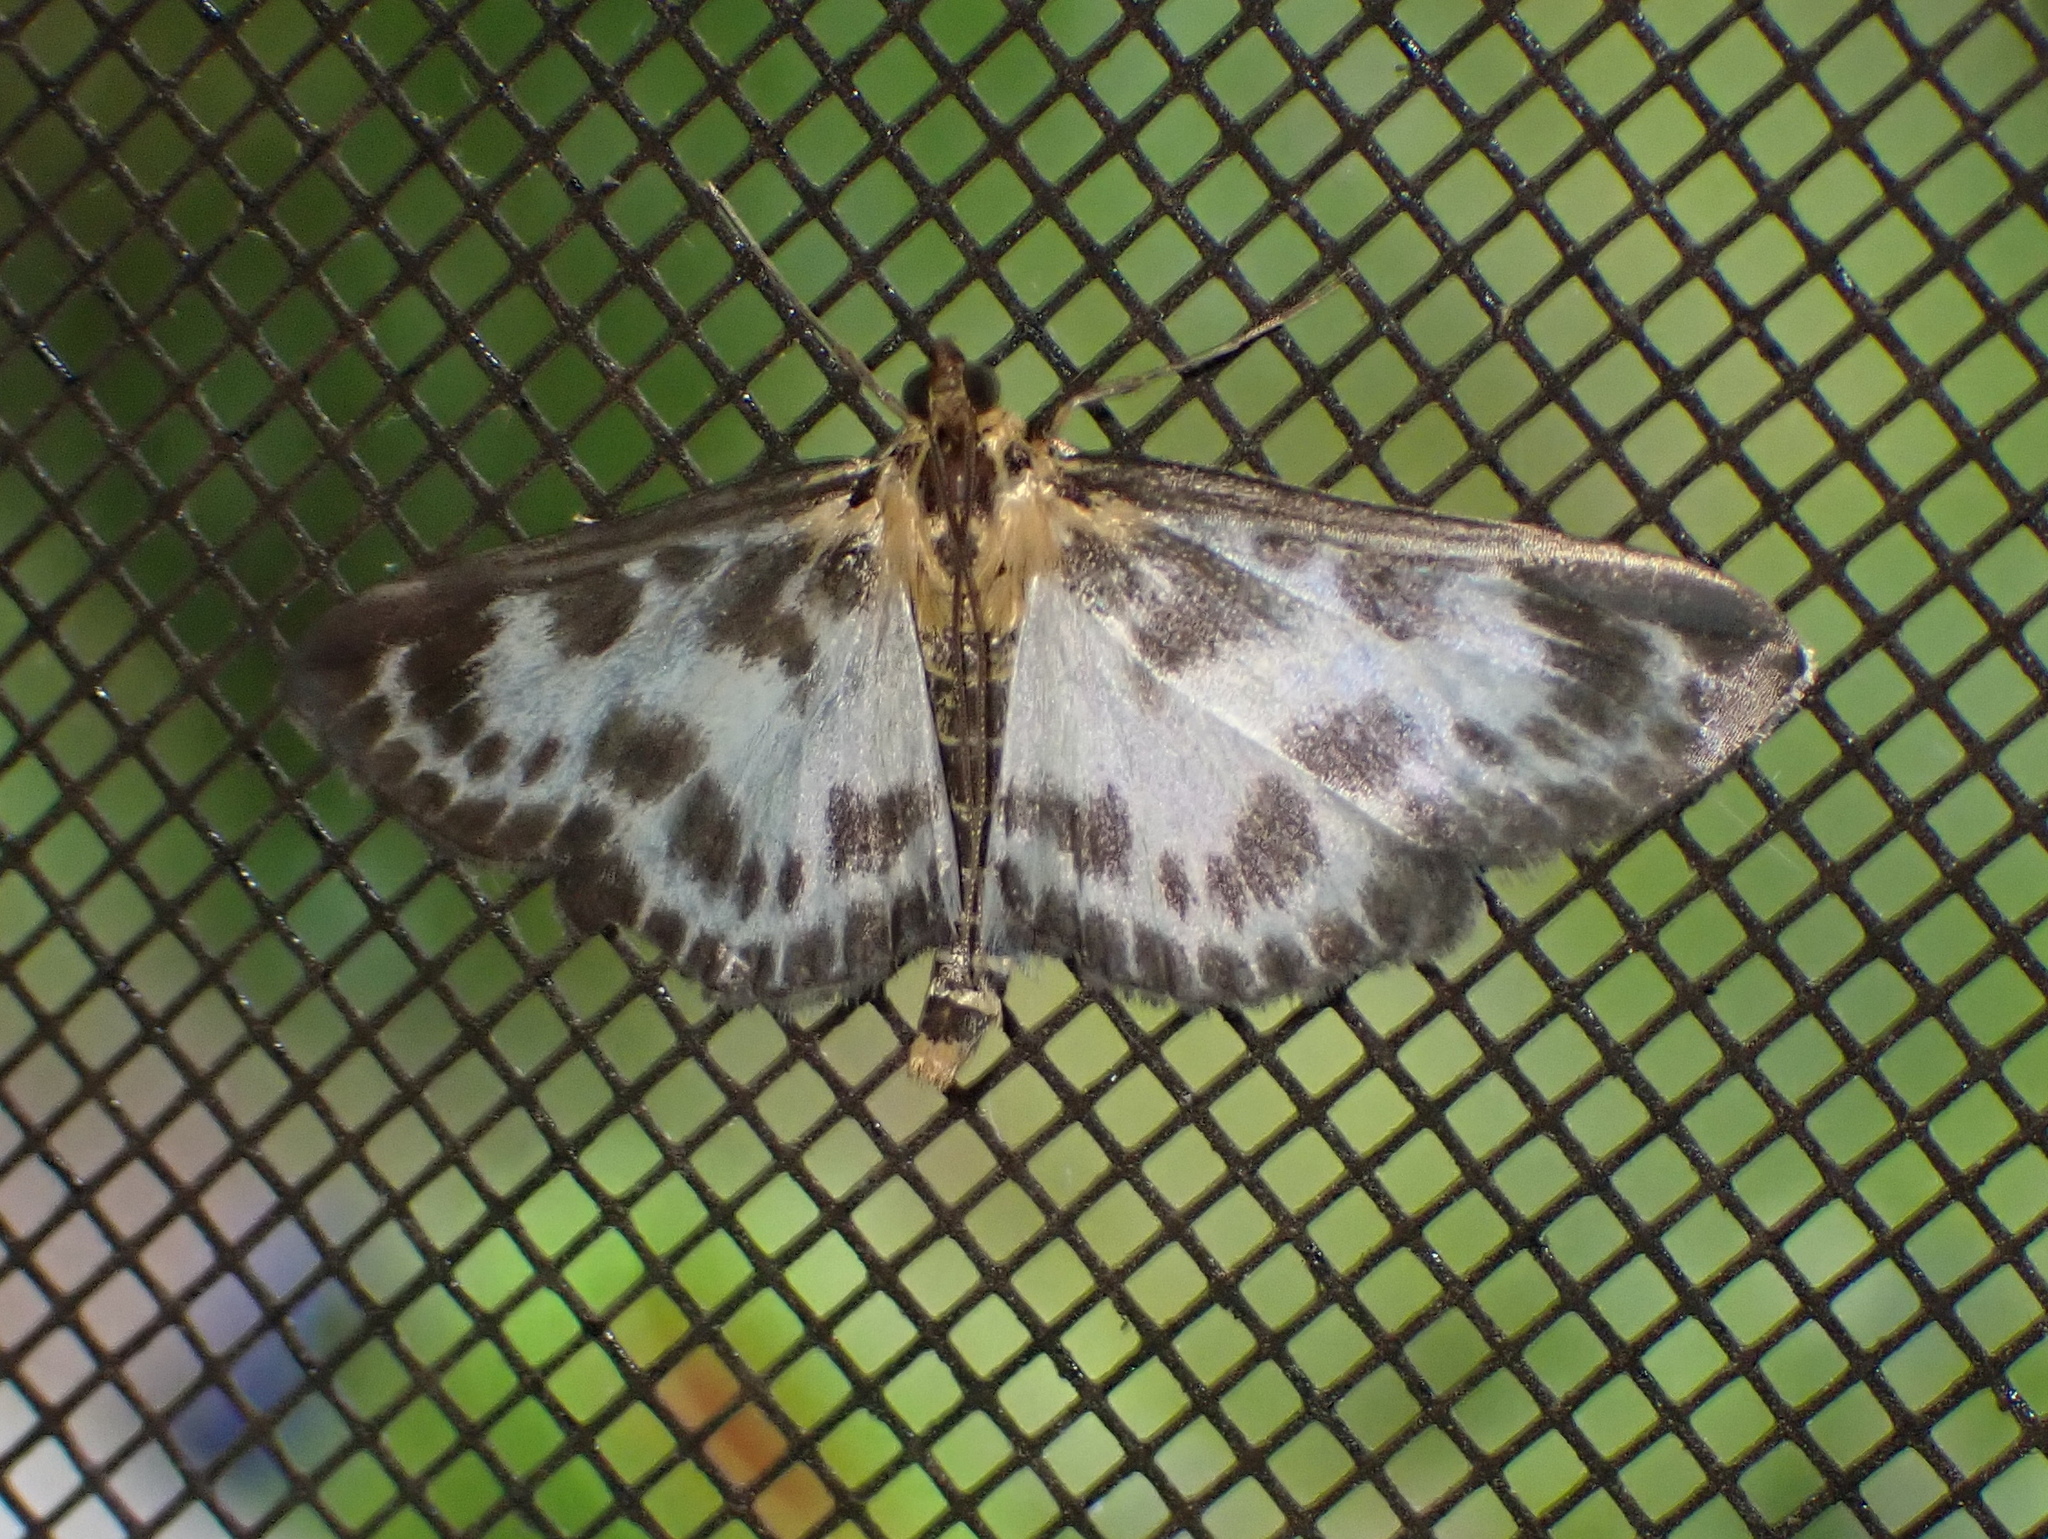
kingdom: Animalia
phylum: Arthropoda
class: Insecta
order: Lepidoptera
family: Crambidae
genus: Anania
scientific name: Anania hortulata
